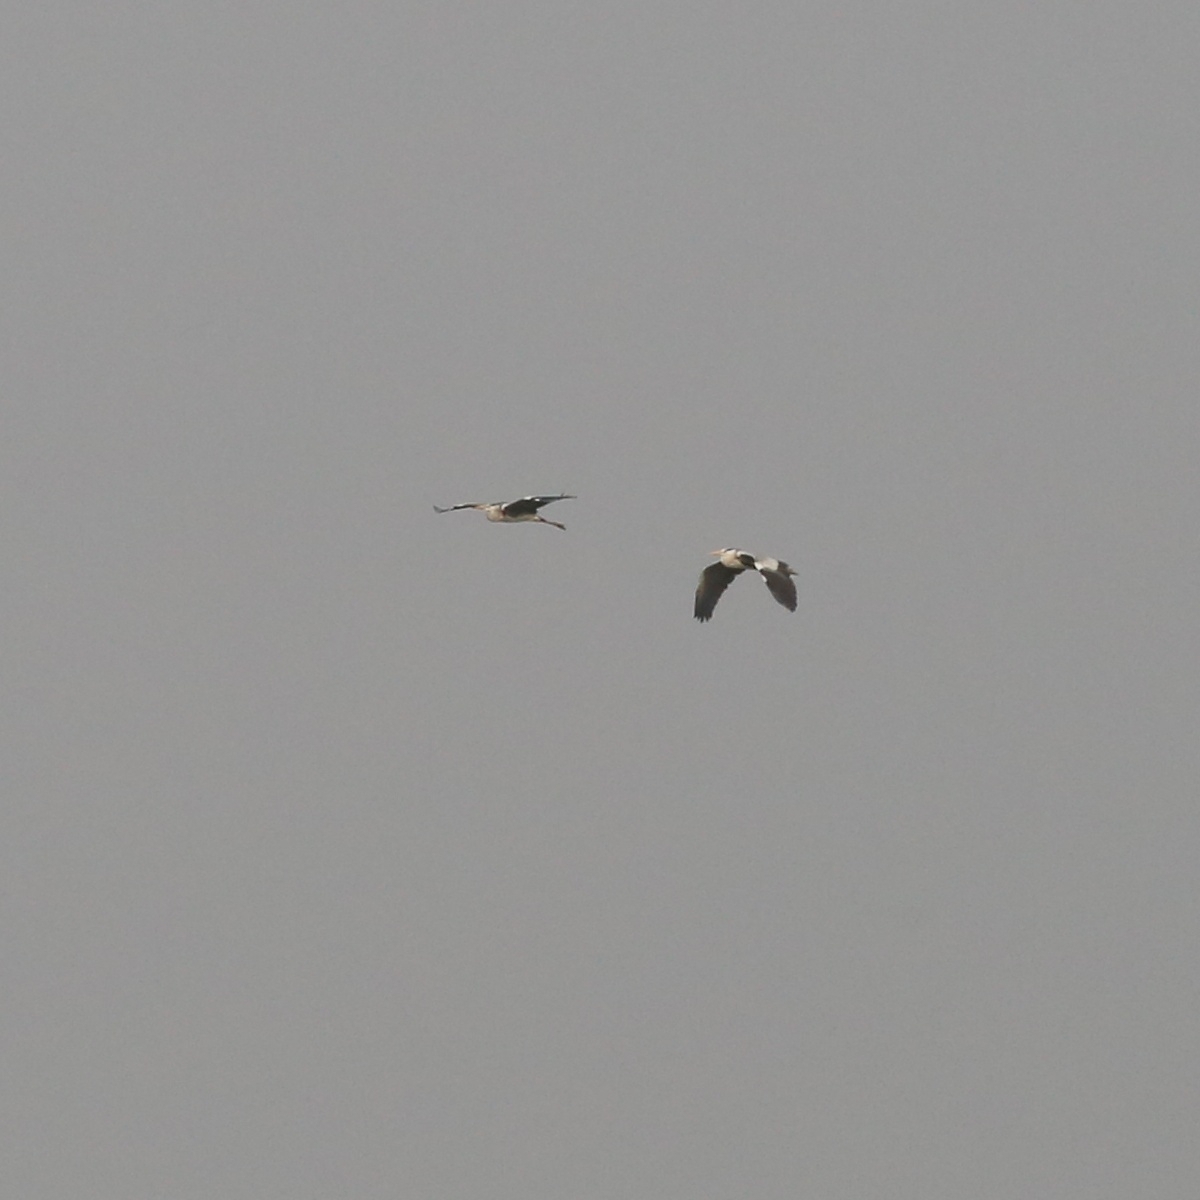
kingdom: Animalia
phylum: Chordata
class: Aves
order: Pelecaniformes
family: Ardeidae
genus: Ardea
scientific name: Ardea cinerea
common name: Grey heron
